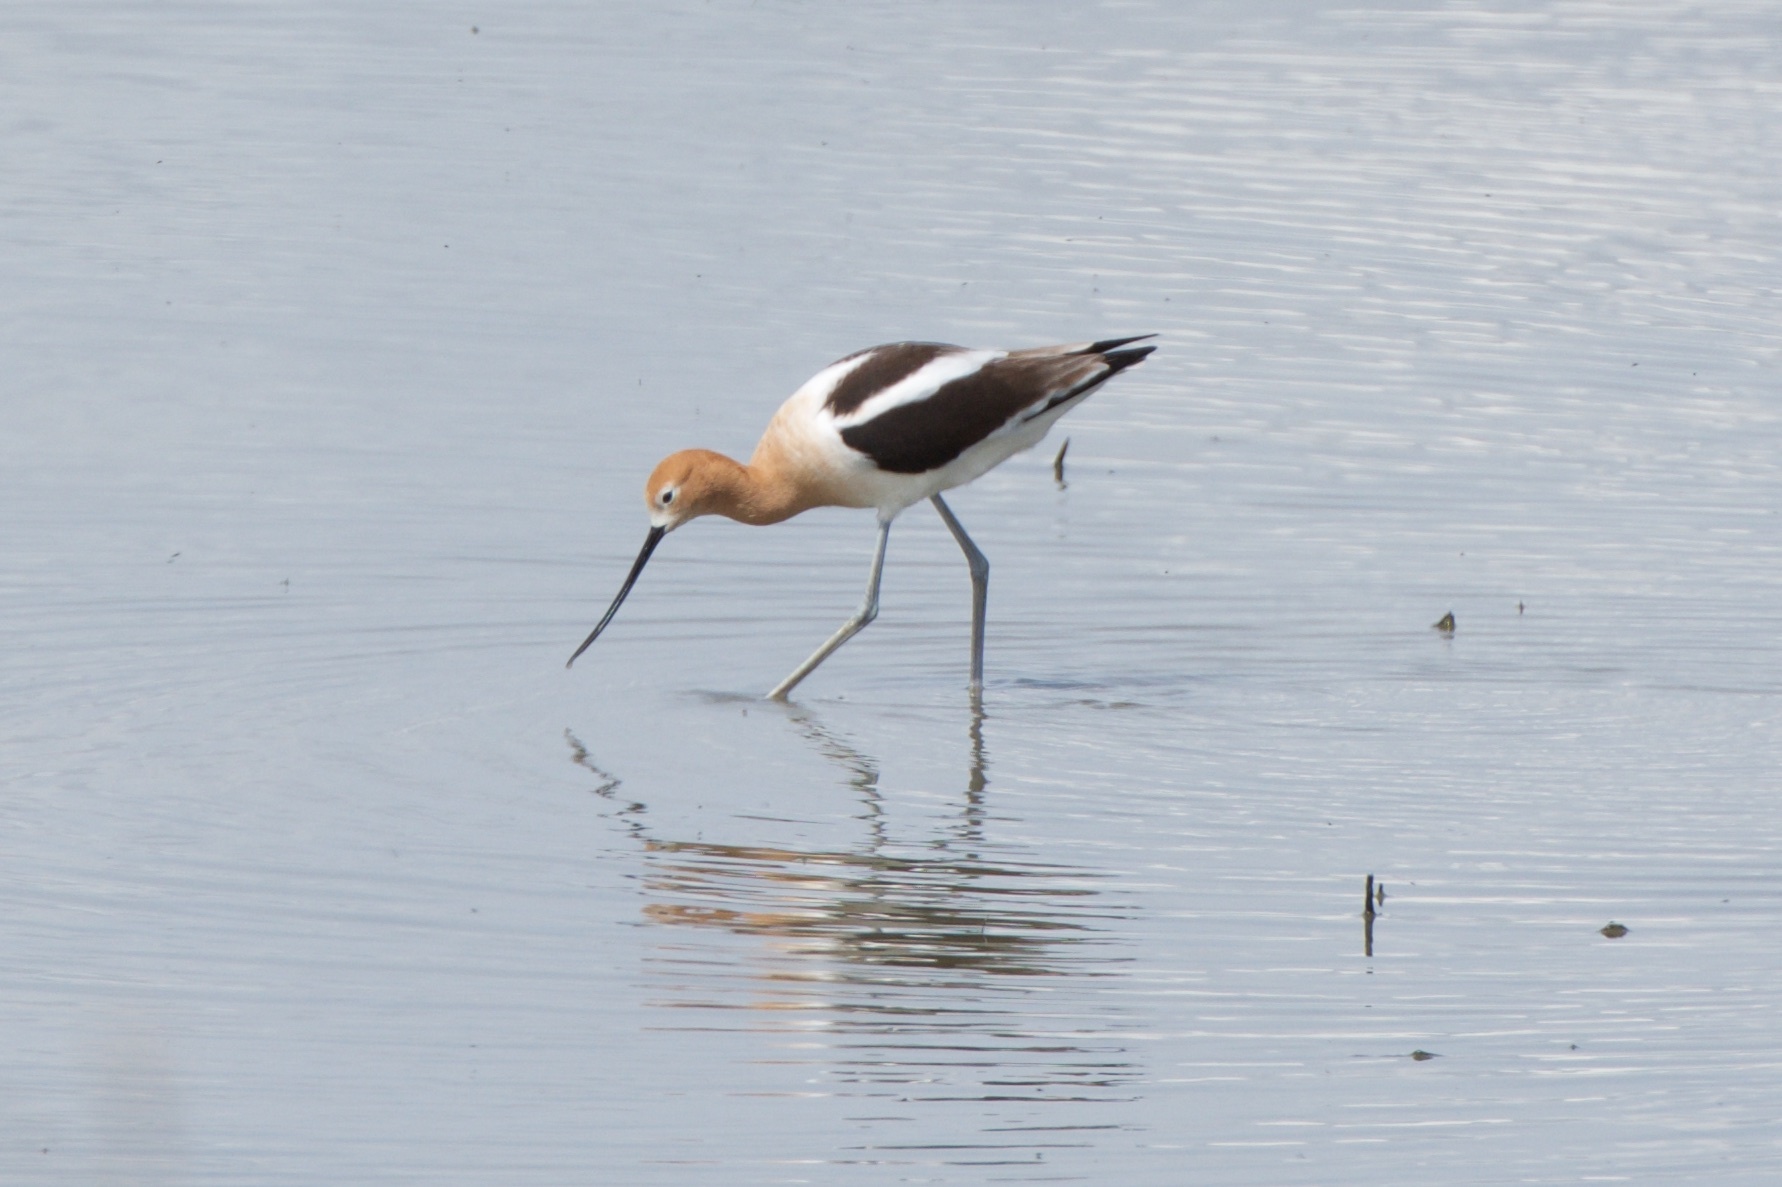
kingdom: Animalia
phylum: Chordata
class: Aves
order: Charadriiformes
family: Recurvirostridae
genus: Recurvirostra
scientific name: Recurvirostra americana
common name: American avocet
